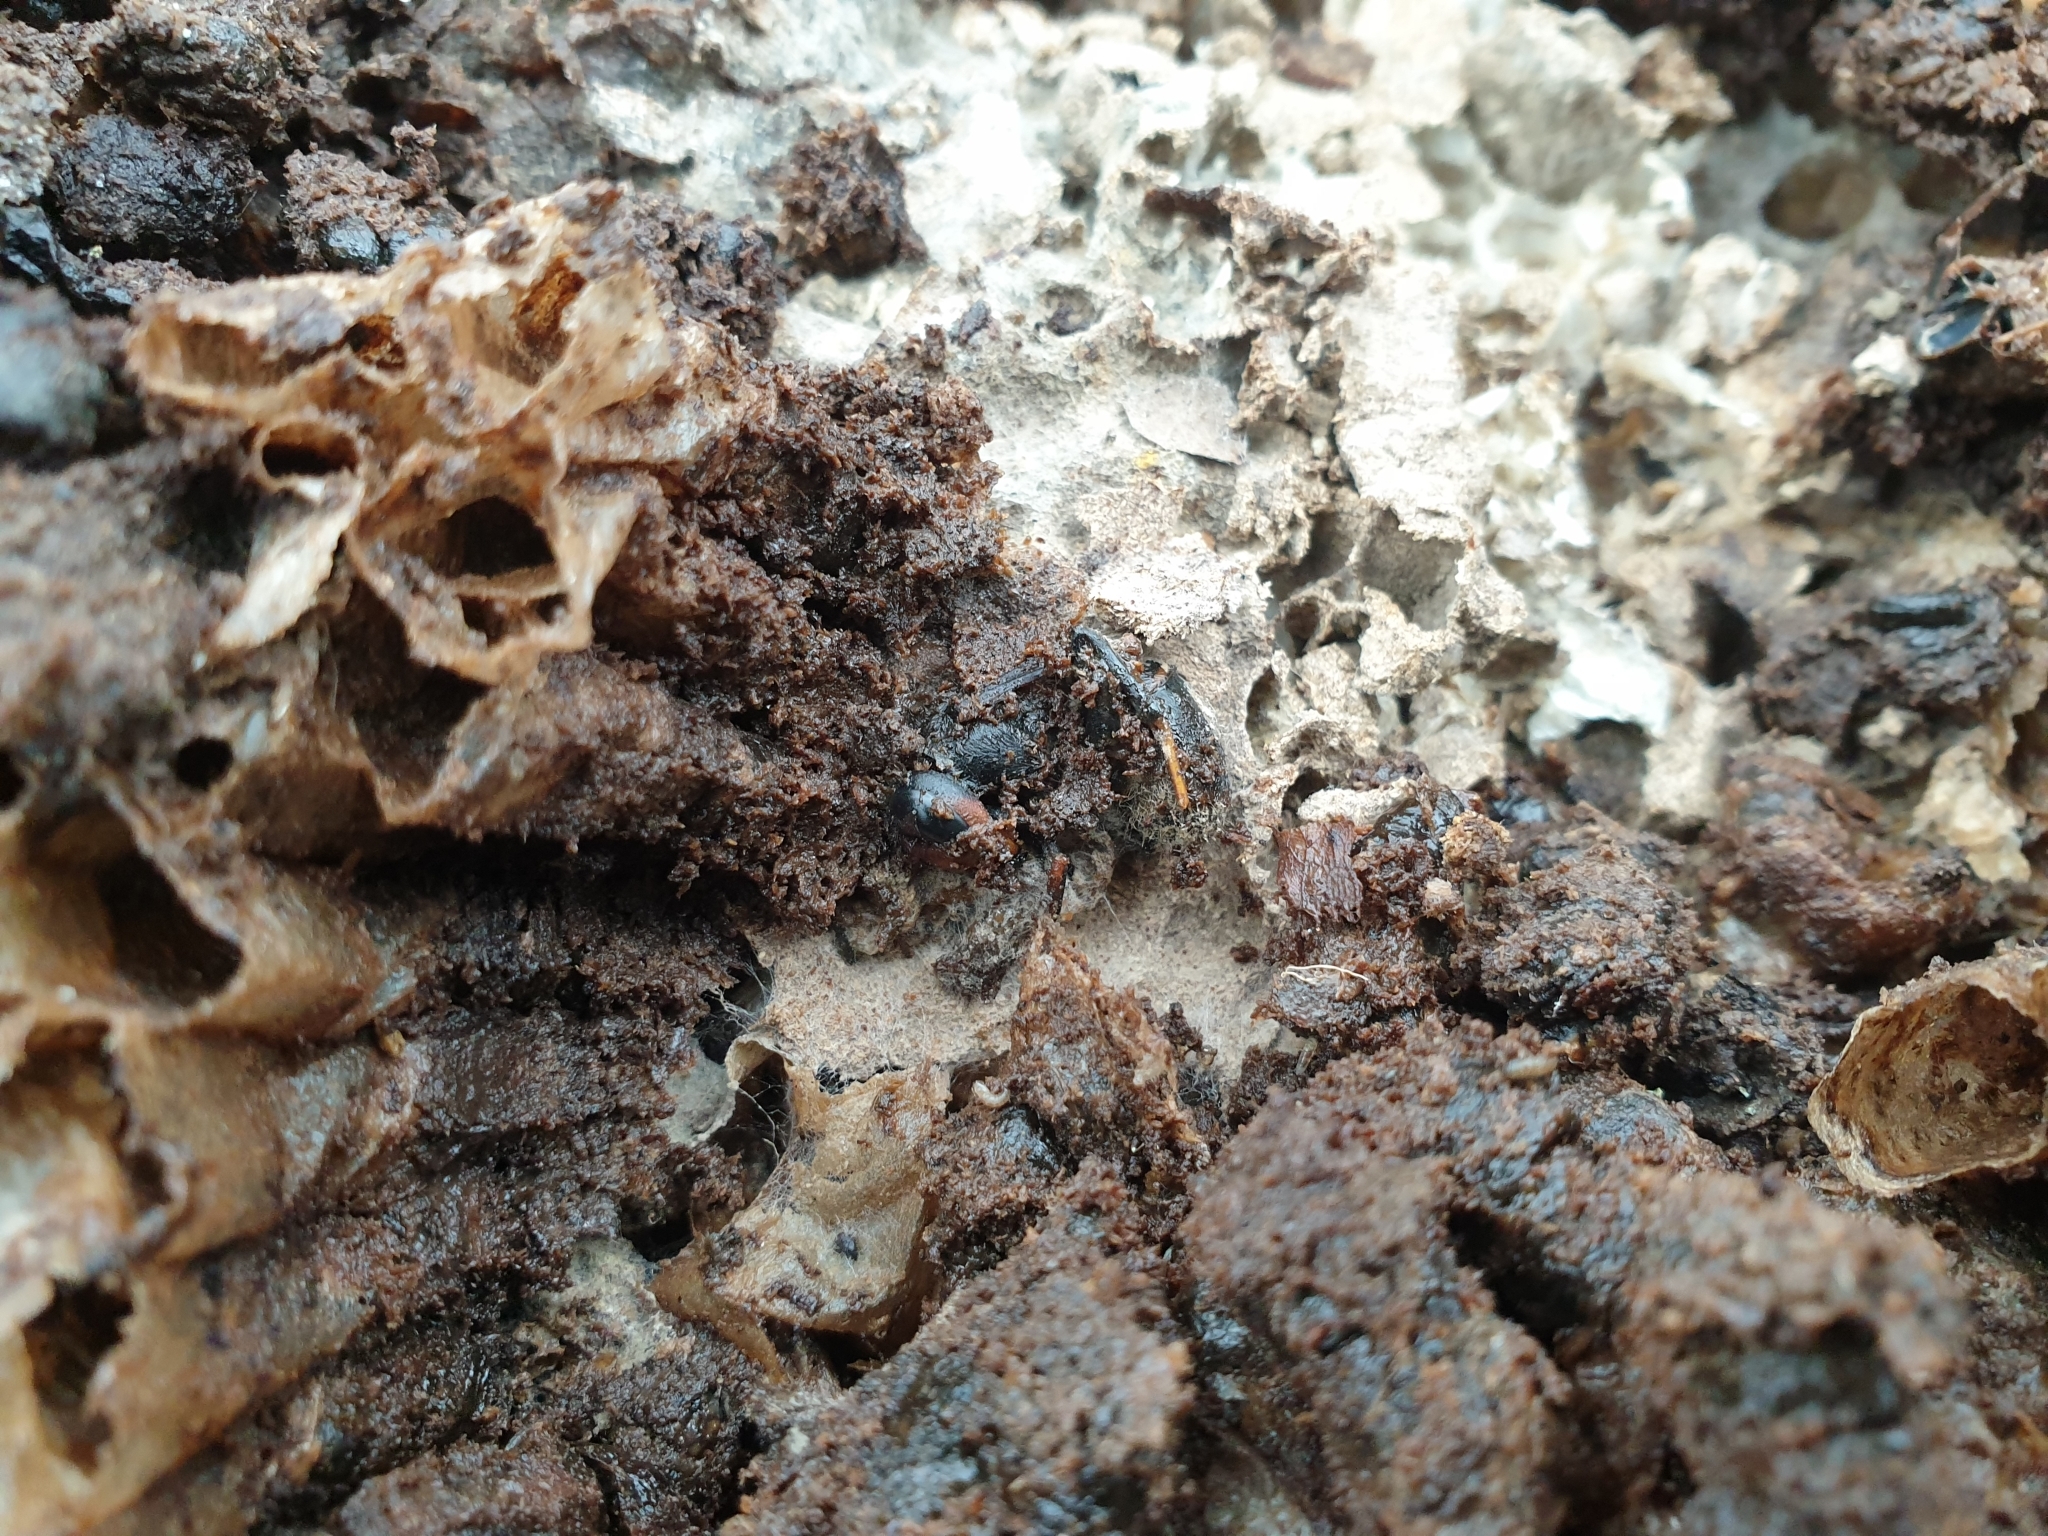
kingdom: Animalia
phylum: Arthropoda
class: Insecta
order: Hymenoptera
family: Vespidae
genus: Vespa
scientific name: Vespa velutina
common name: Asian hornet
